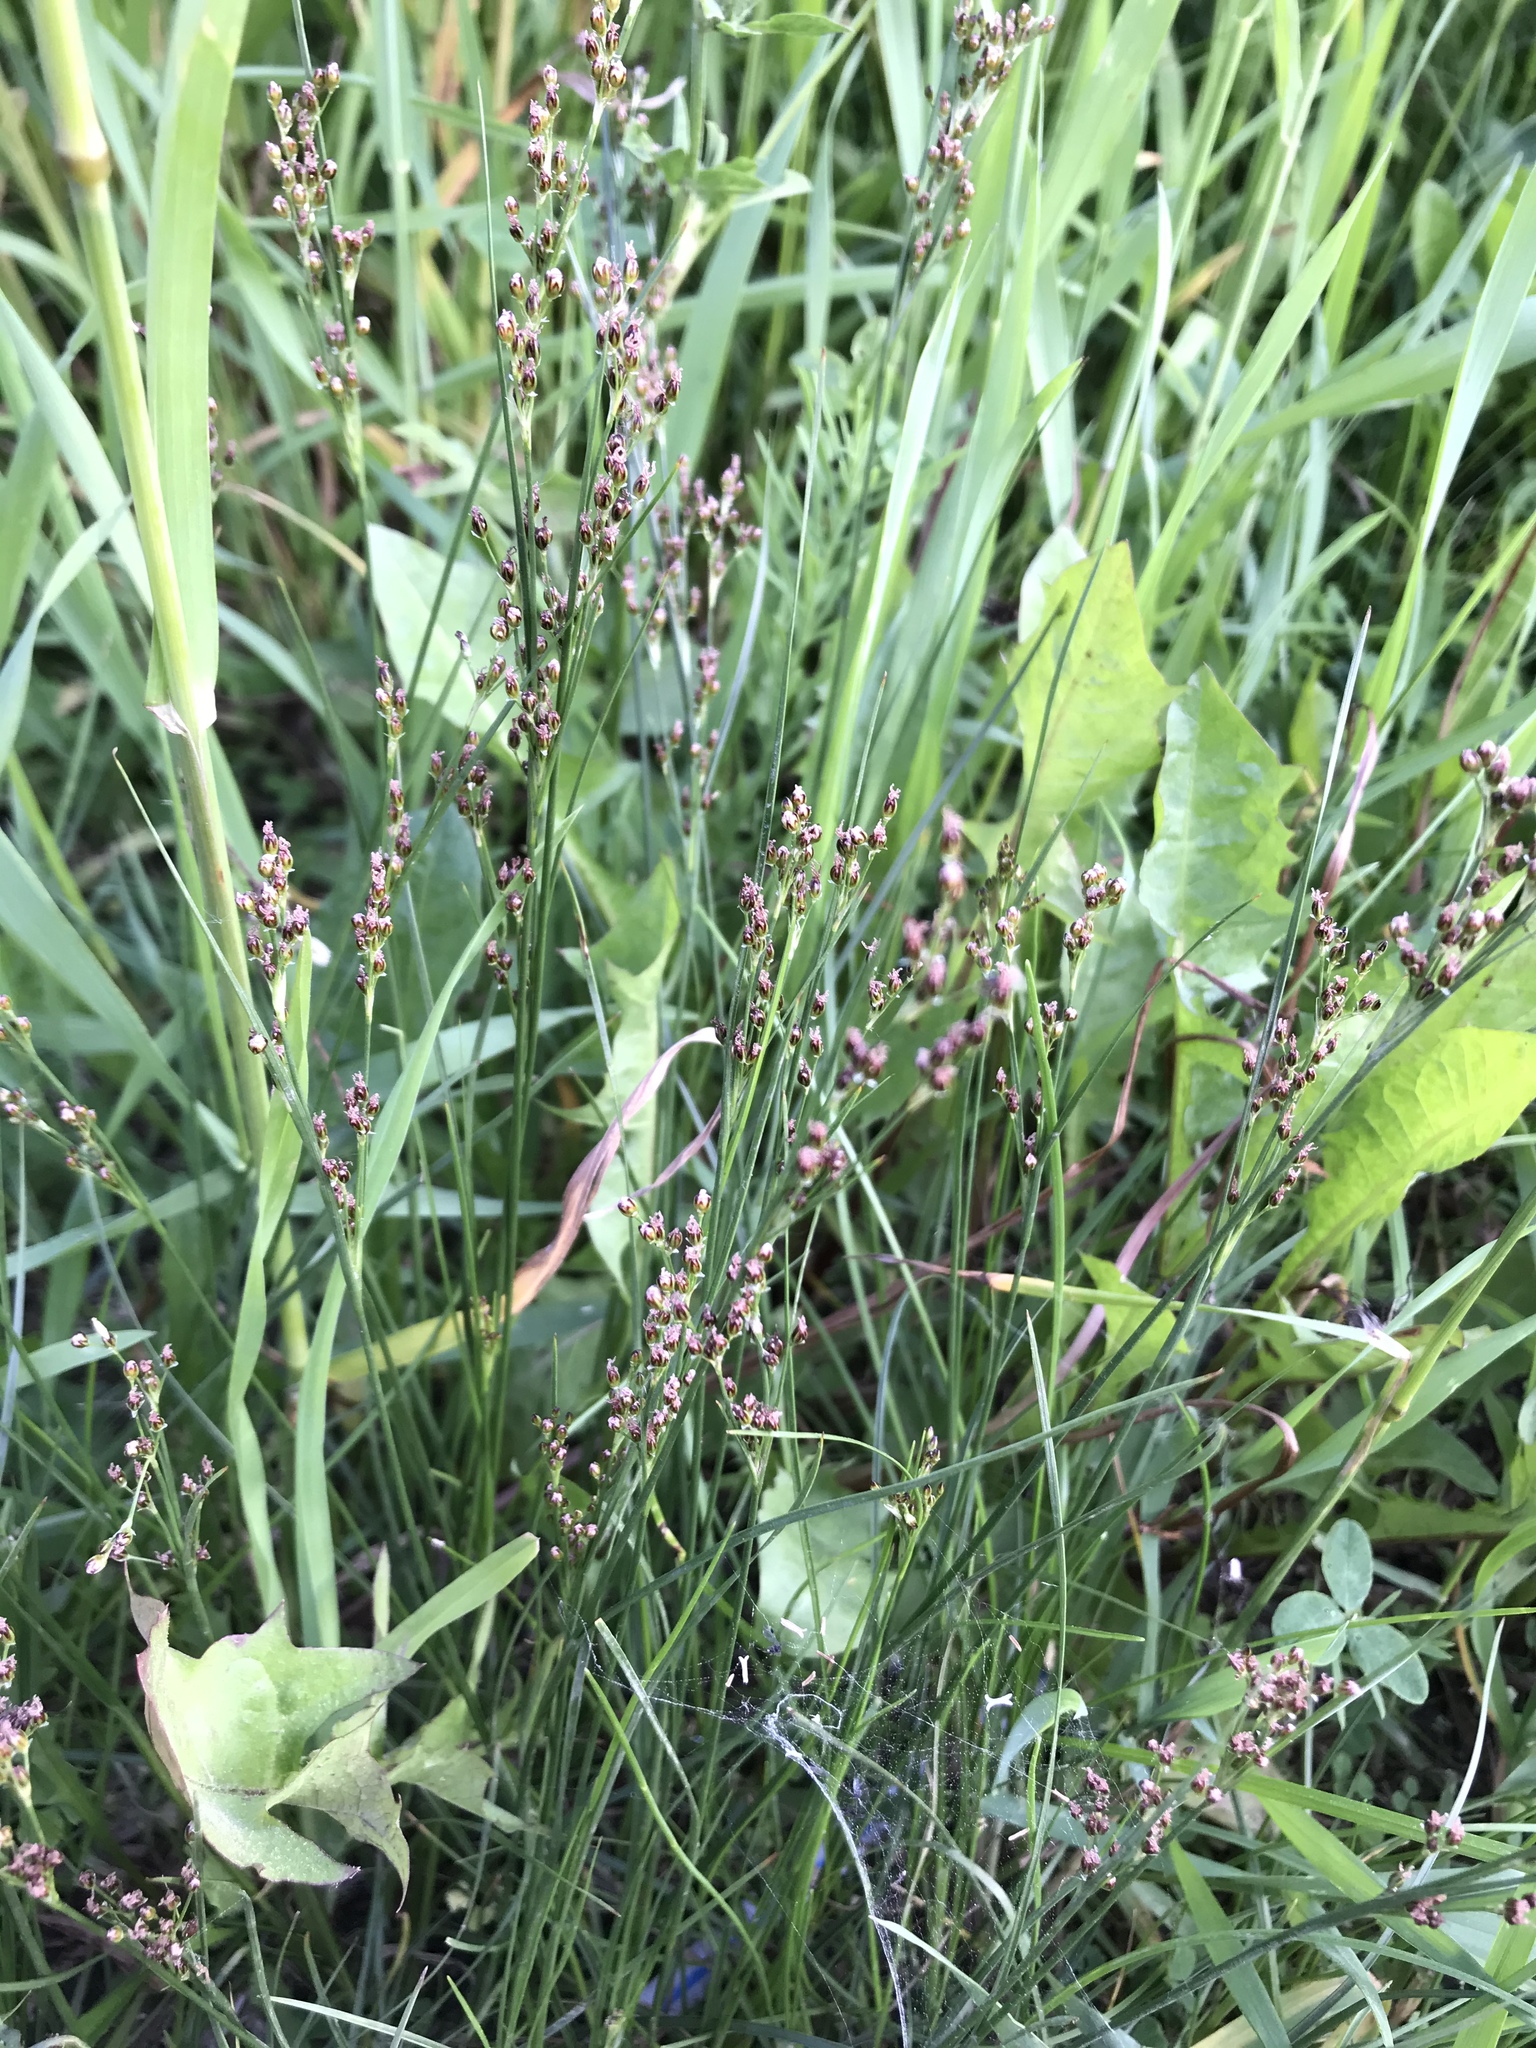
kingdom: Plantae
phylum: Tracheophyta
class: Liliopsida
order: Poales
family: Juncaceae
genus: Juncus
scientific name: Juncus compressus
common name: Round-fruited rush
